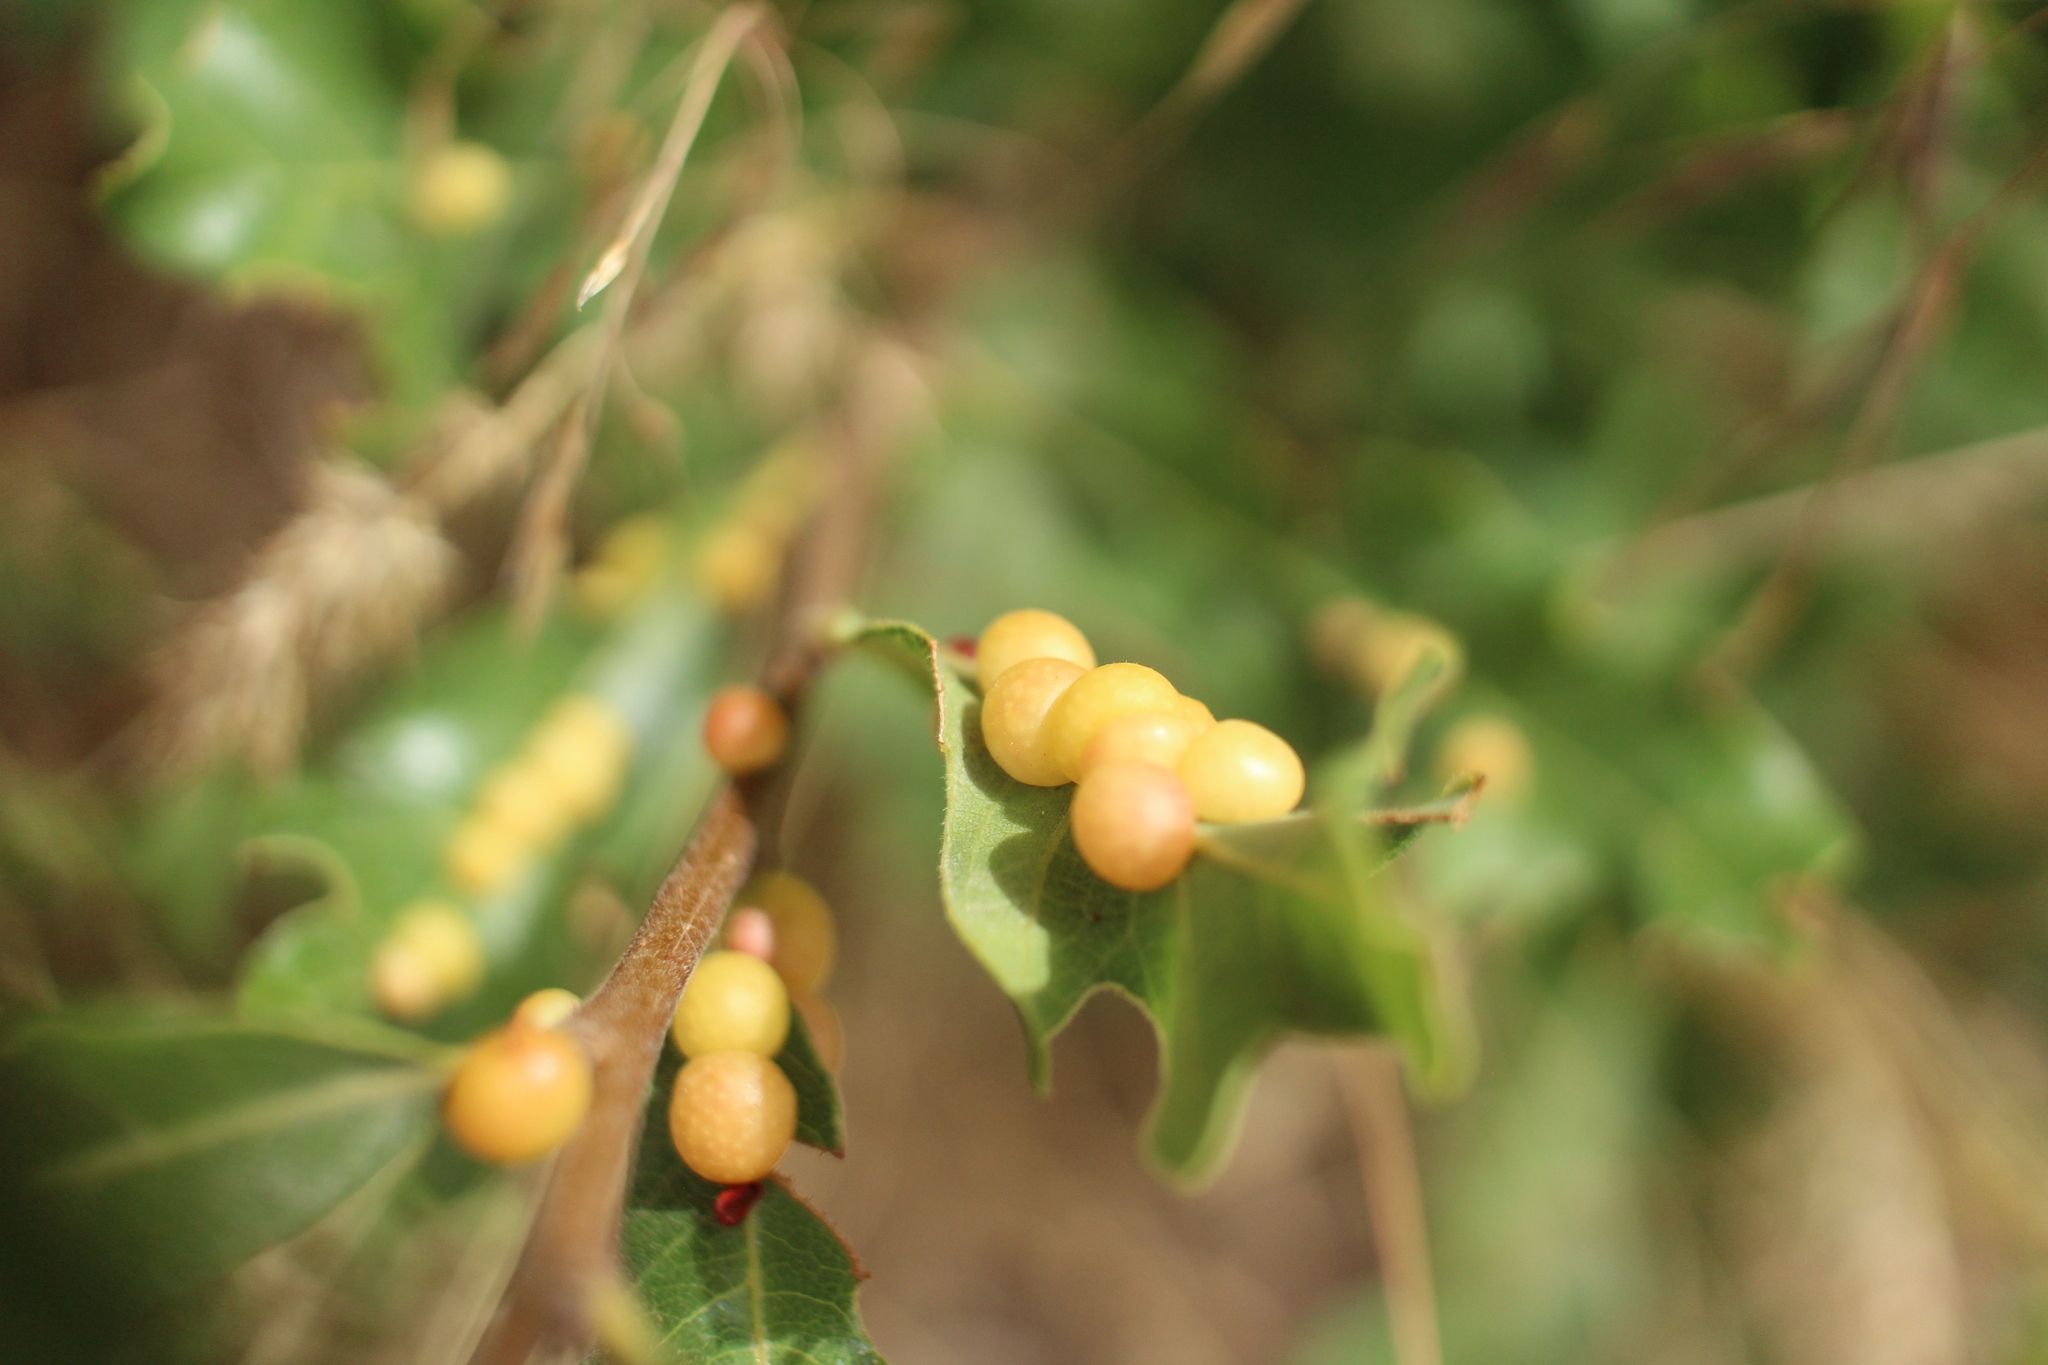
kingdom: Animalia
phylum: Arthropoda
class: Insecta
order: Hymenoptera
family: Cynipidae
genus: Trigonaspis
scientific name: Trigonaspis
